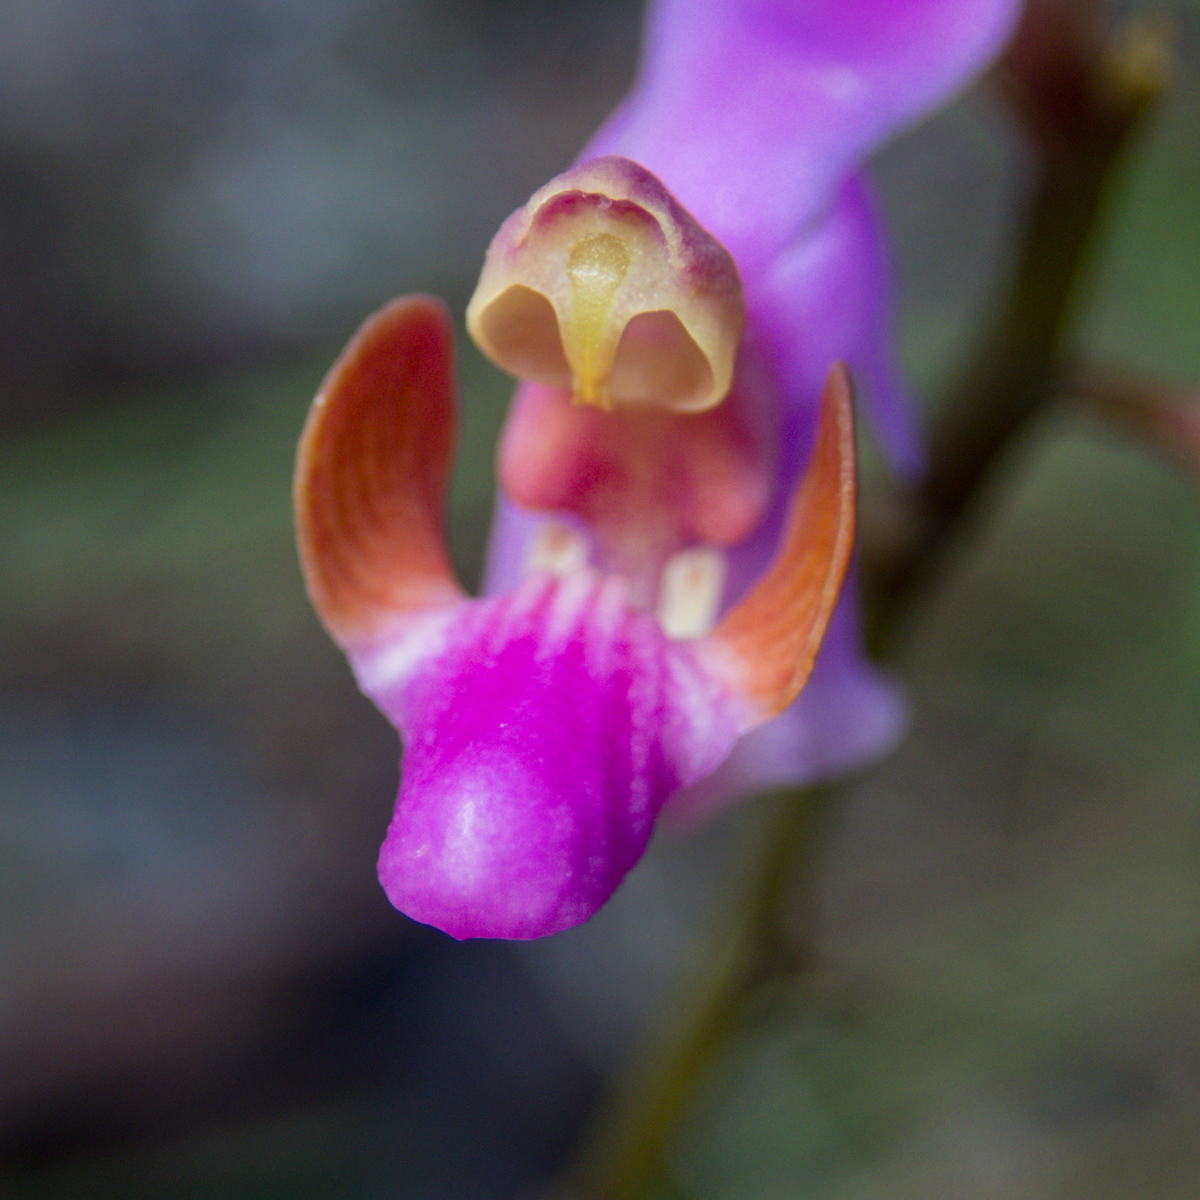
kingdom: Plantae
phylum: Tracheophyta
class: Liliopsida
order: Asparagales
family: Orchidaceae
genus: Phalaenopsis
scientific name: Phalaenopsis pulcherrima
